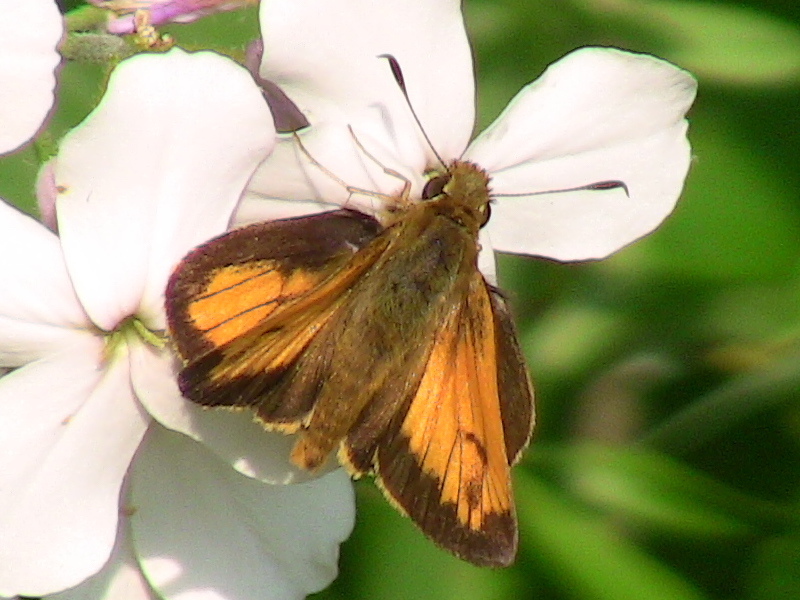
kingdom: Animalia
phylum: Arthropoda
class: Insecta
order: Lepidoptera
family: Hesperiidae
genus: Lon
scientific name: Lon hobomok
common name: Hobomok skipper
